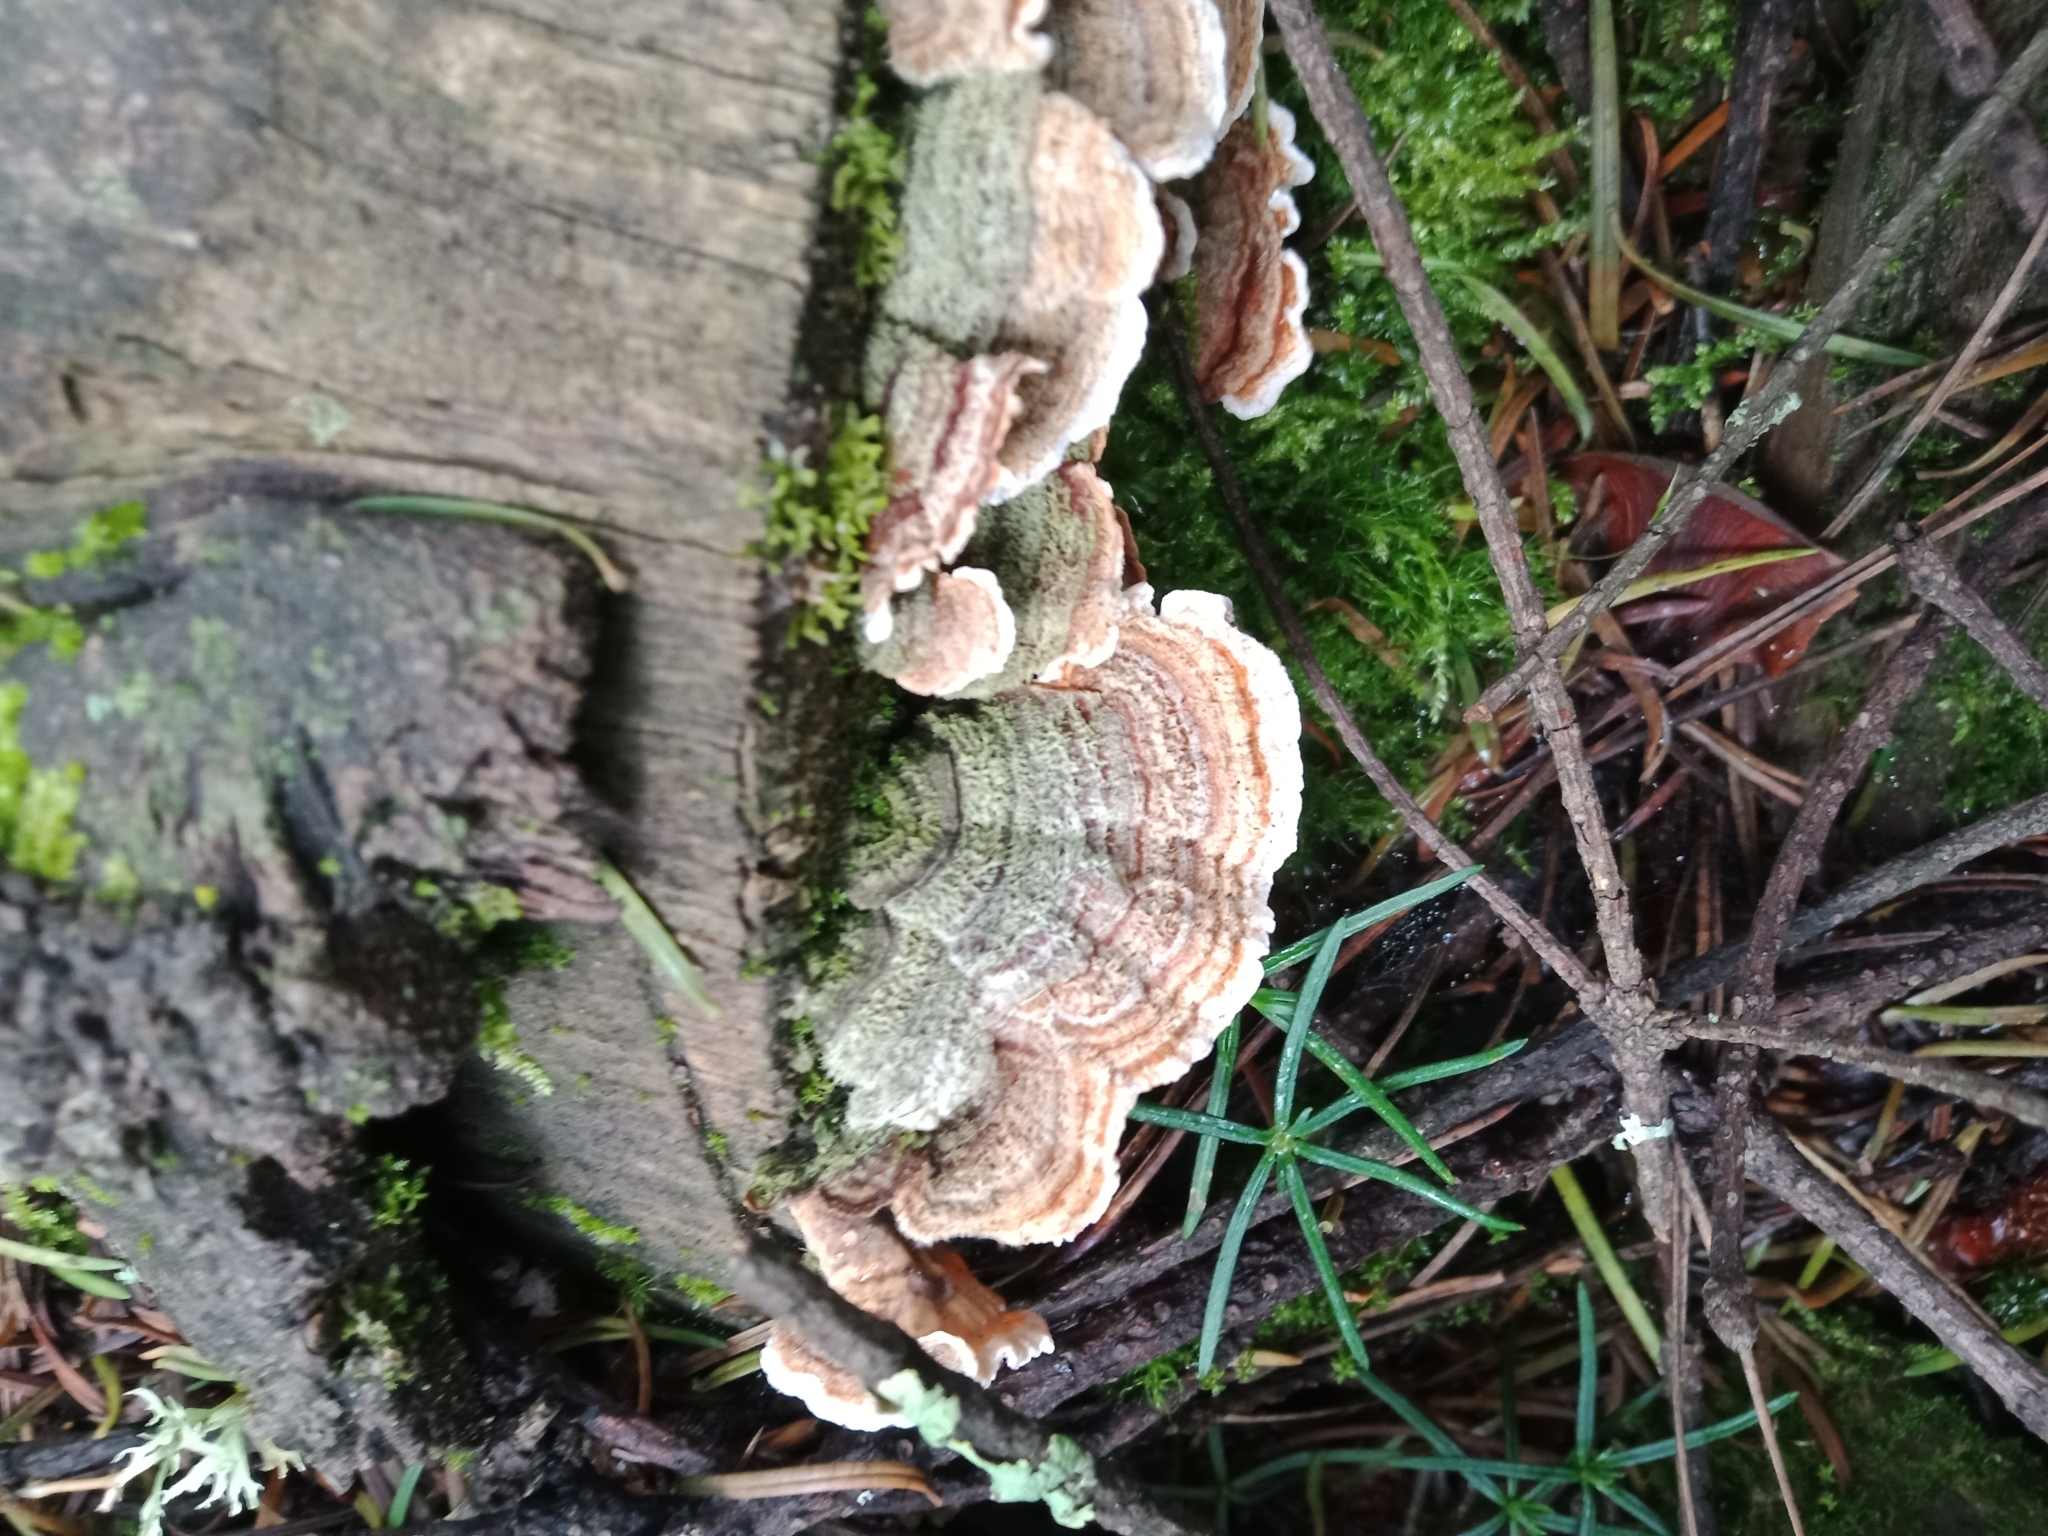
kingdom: Fungi
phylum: Basidiomycota
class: Agaricomycetes
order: Polyporales
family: Polyporaceae
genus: Trametes
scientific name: Trametes versicolor
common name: Turkeytail
